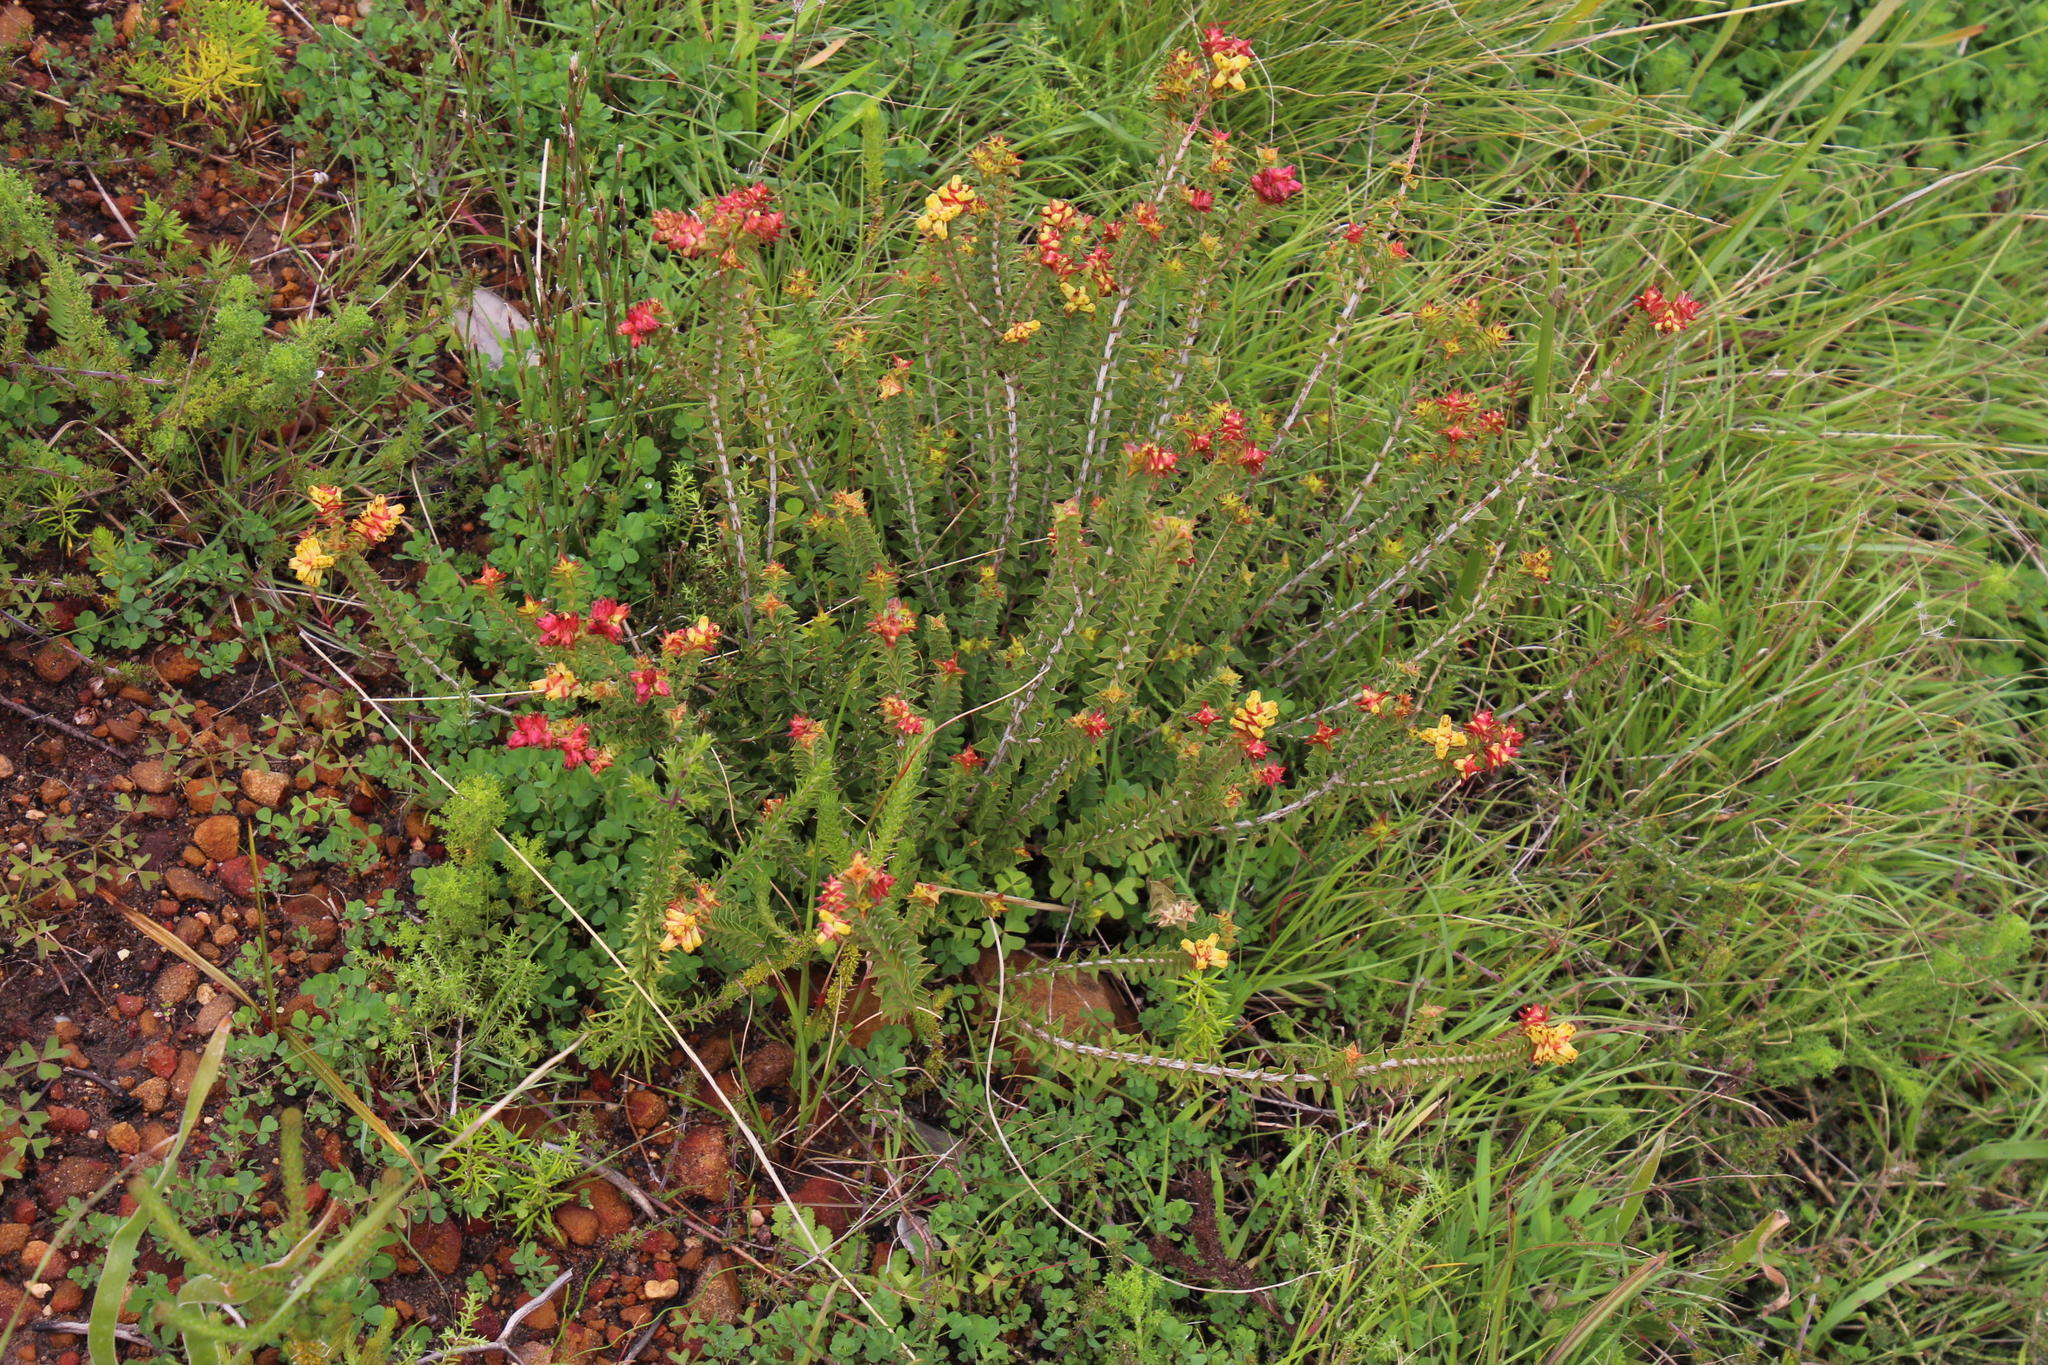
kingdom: Plantae
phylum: Tracheophyta
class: Magnoliopsida
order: Myrtales
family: Penaeaceae
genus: Penaea
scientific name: Penaea mucronata
